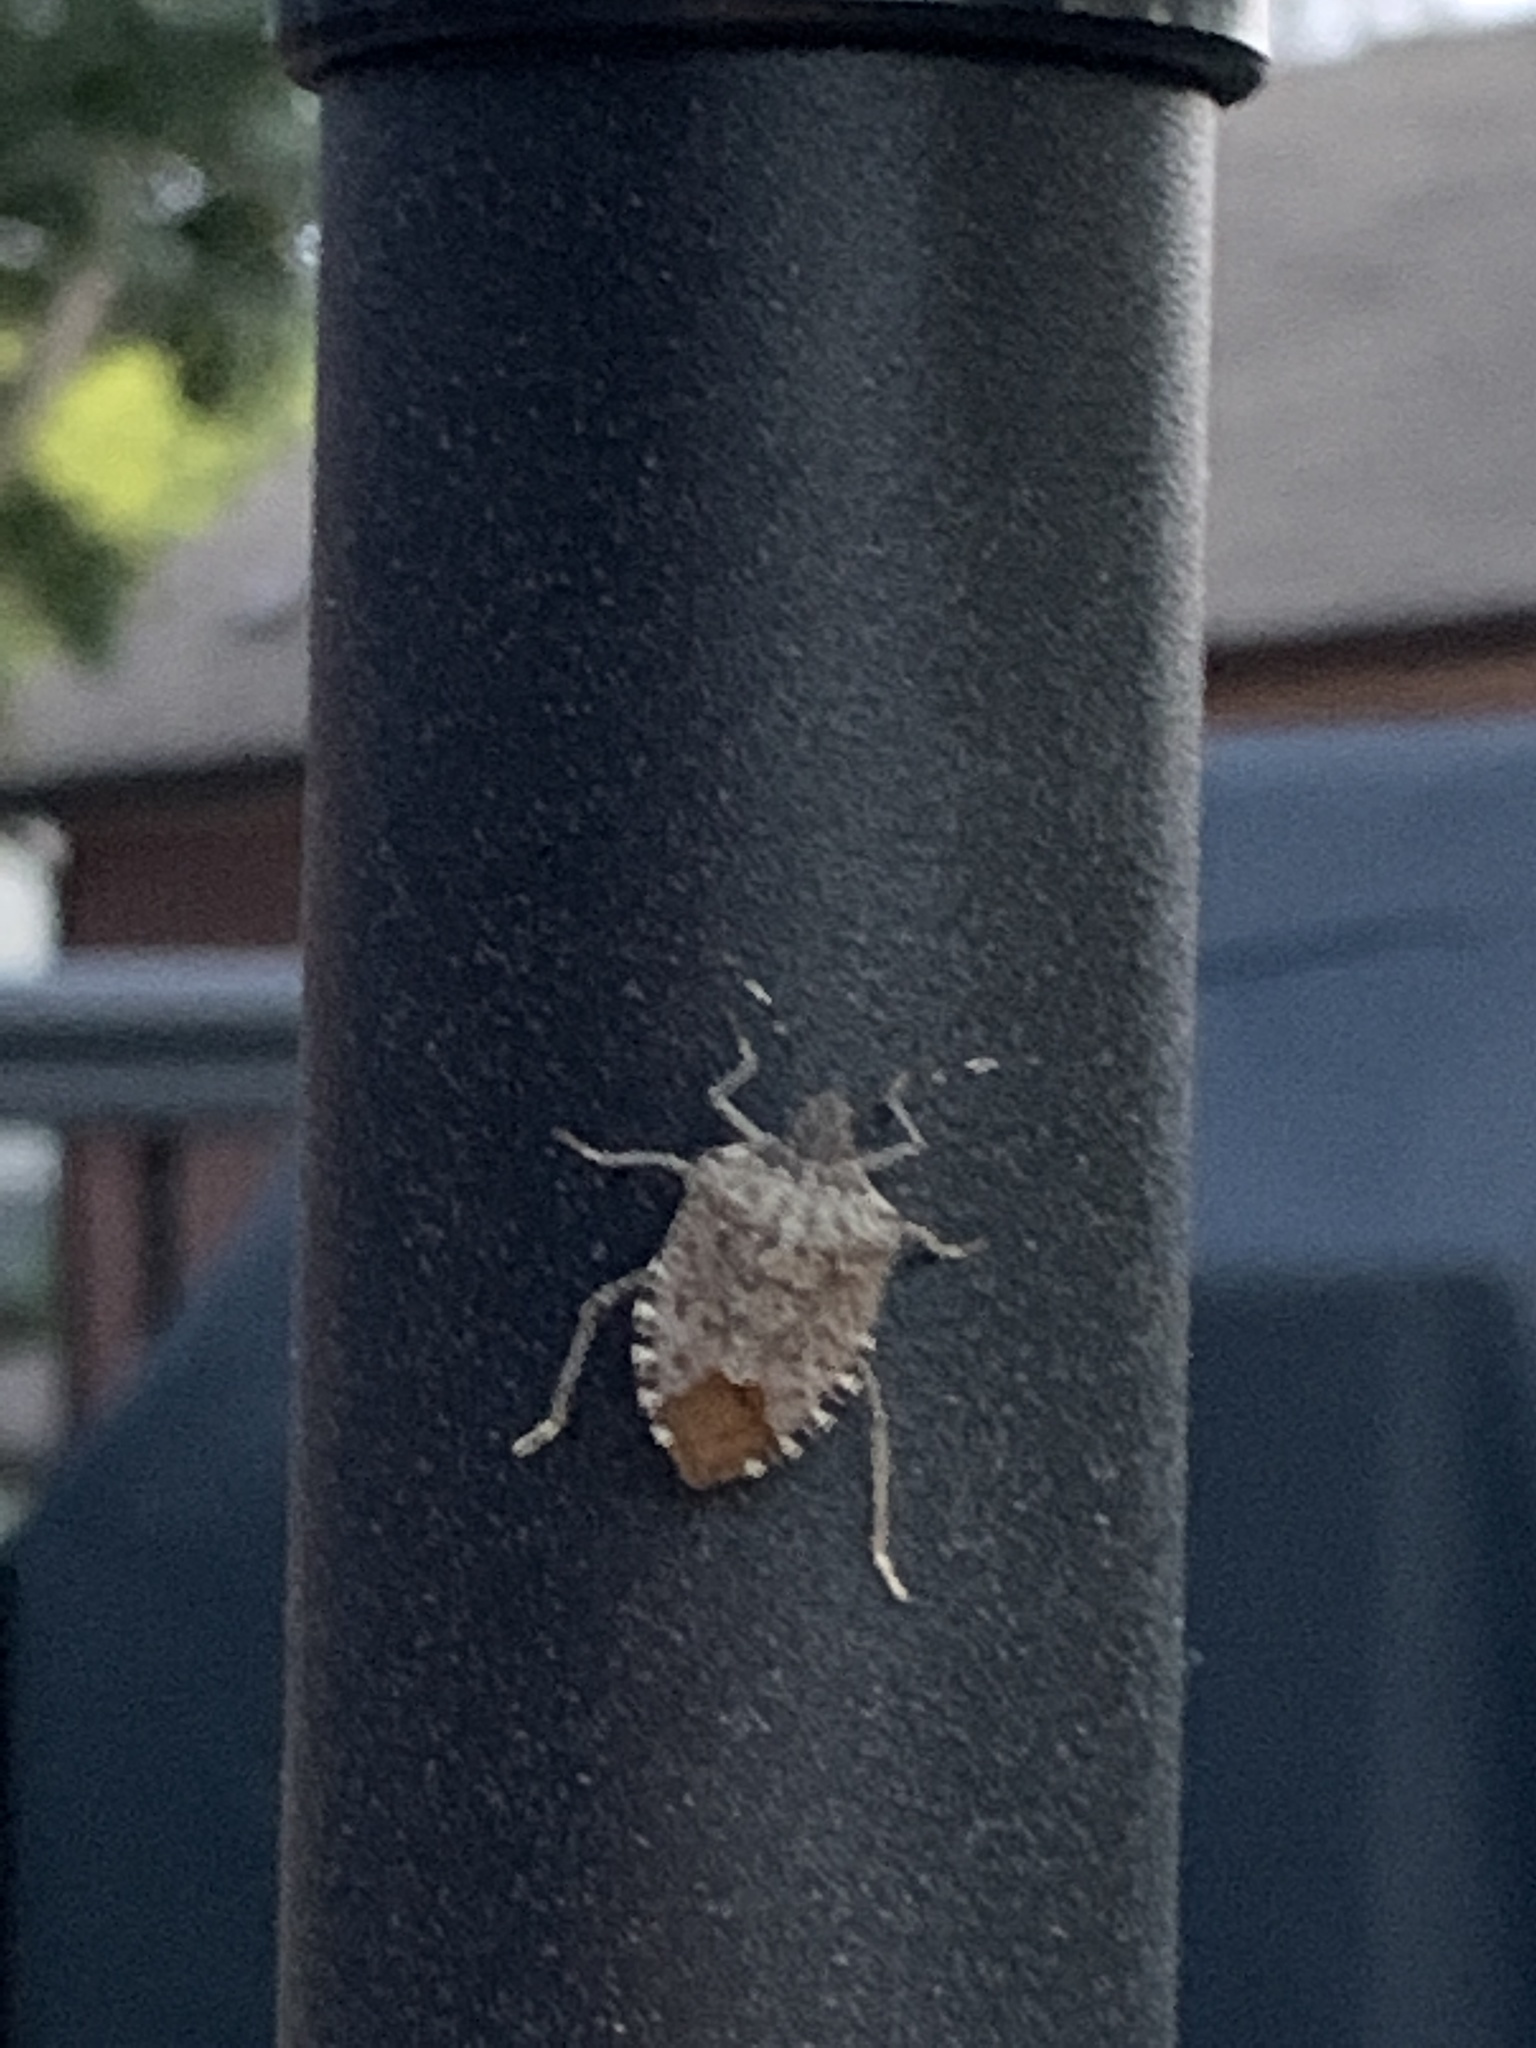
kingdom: Animalia
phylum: Arthropoda
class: Insecta
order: Hemiptera
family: Pentatomidae
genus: Halyomorpha
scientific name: Halyomorpha halys
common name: Brown marmorated stink bug
